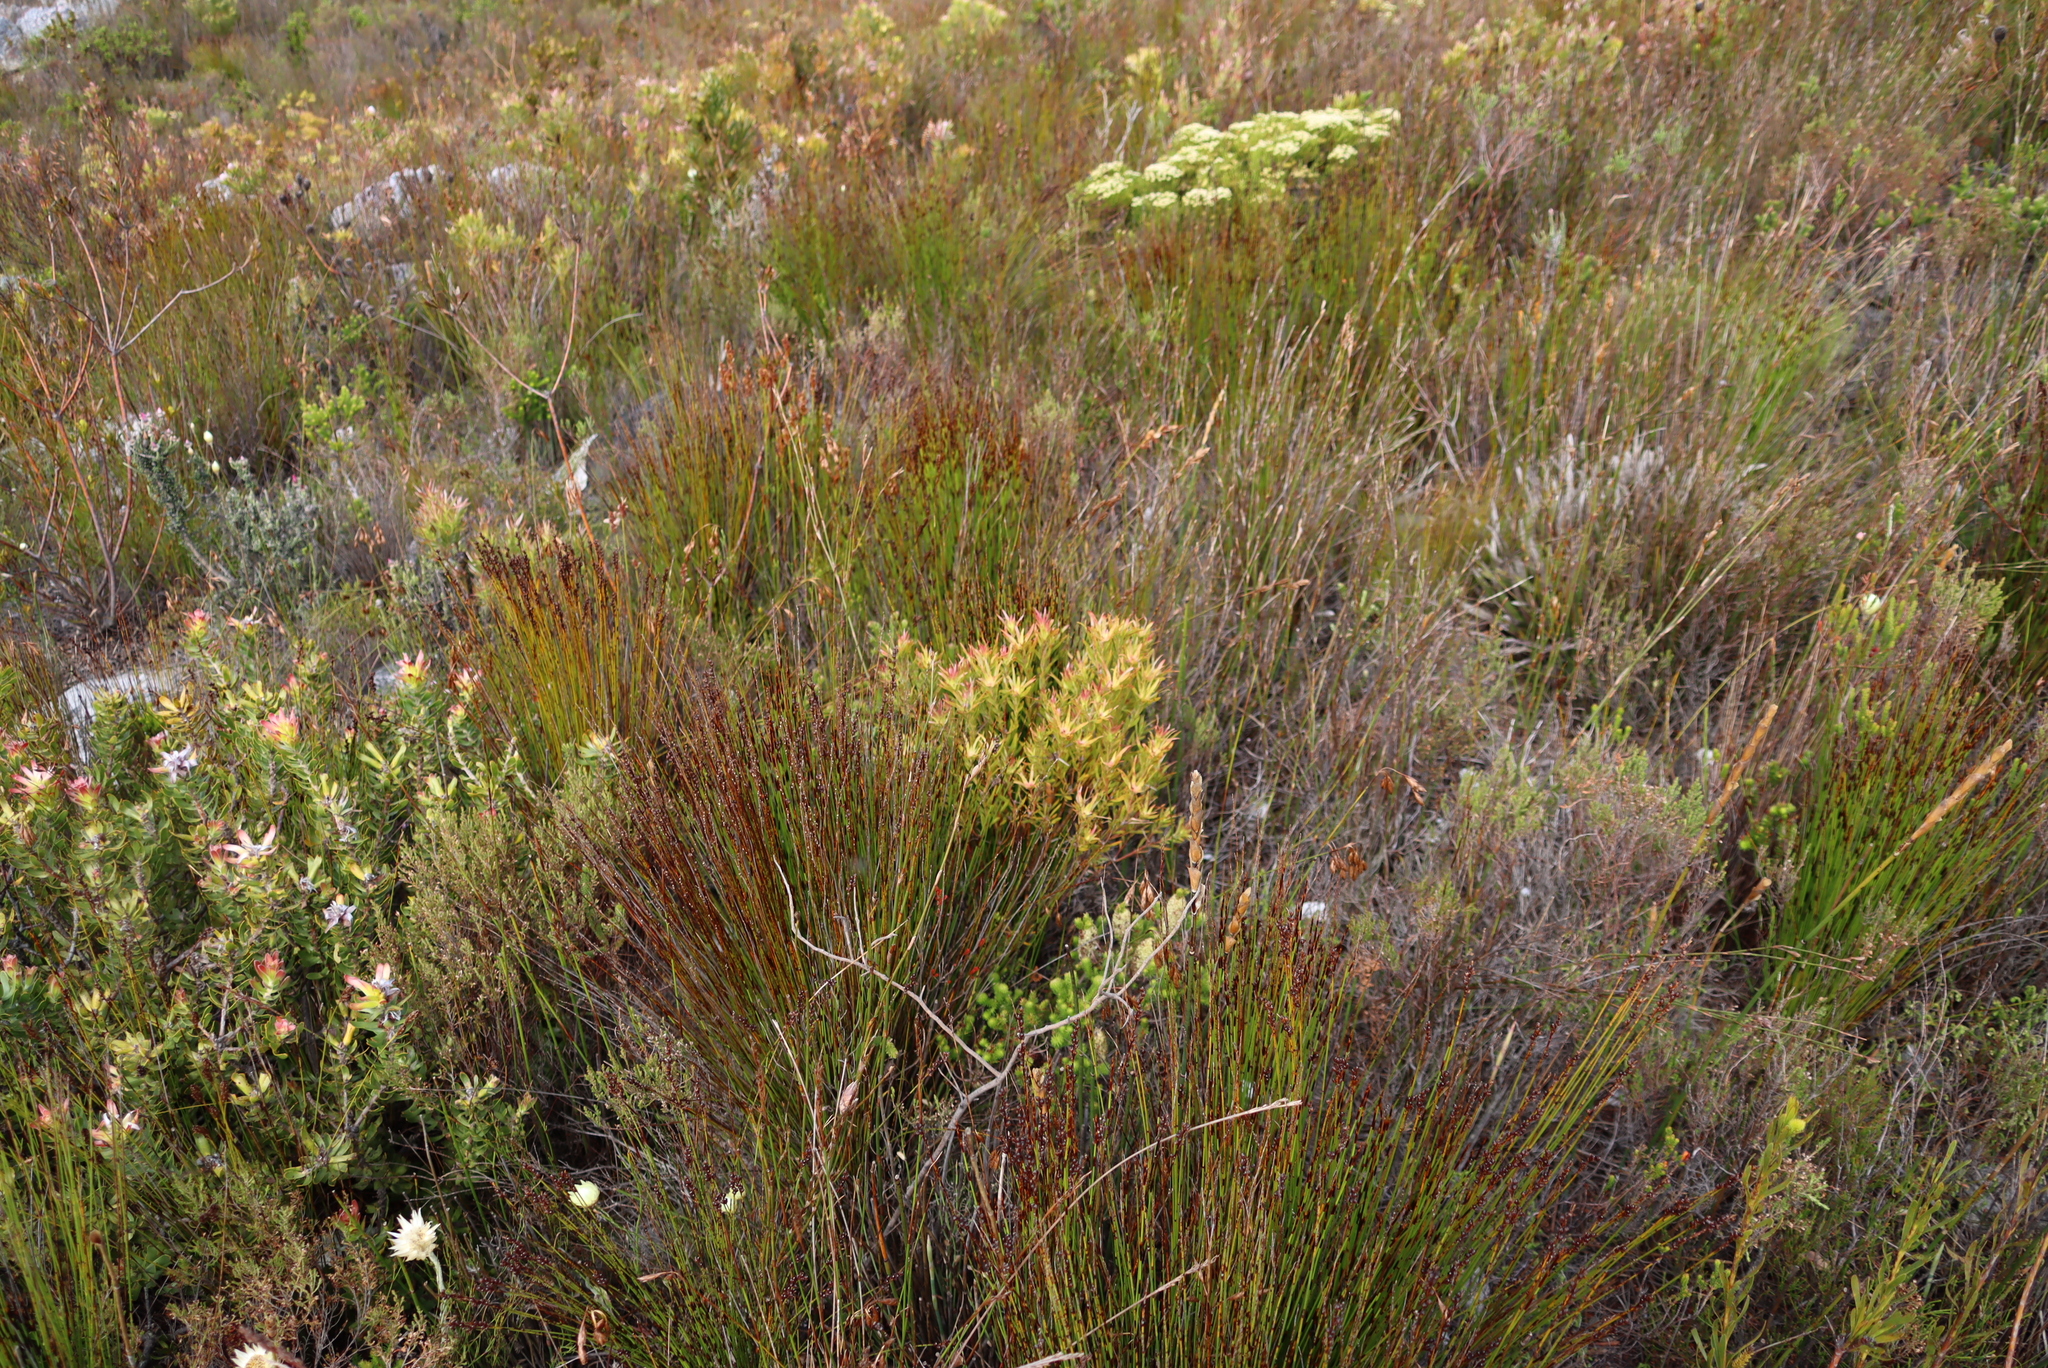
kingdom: Plantae
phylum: Tracheophyta
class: Magnoliopsida
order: Proteales
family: Proteaceae
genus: Leucadendron
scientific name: Leucadendron xanthoconus
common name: Sickle-leaf conebush
